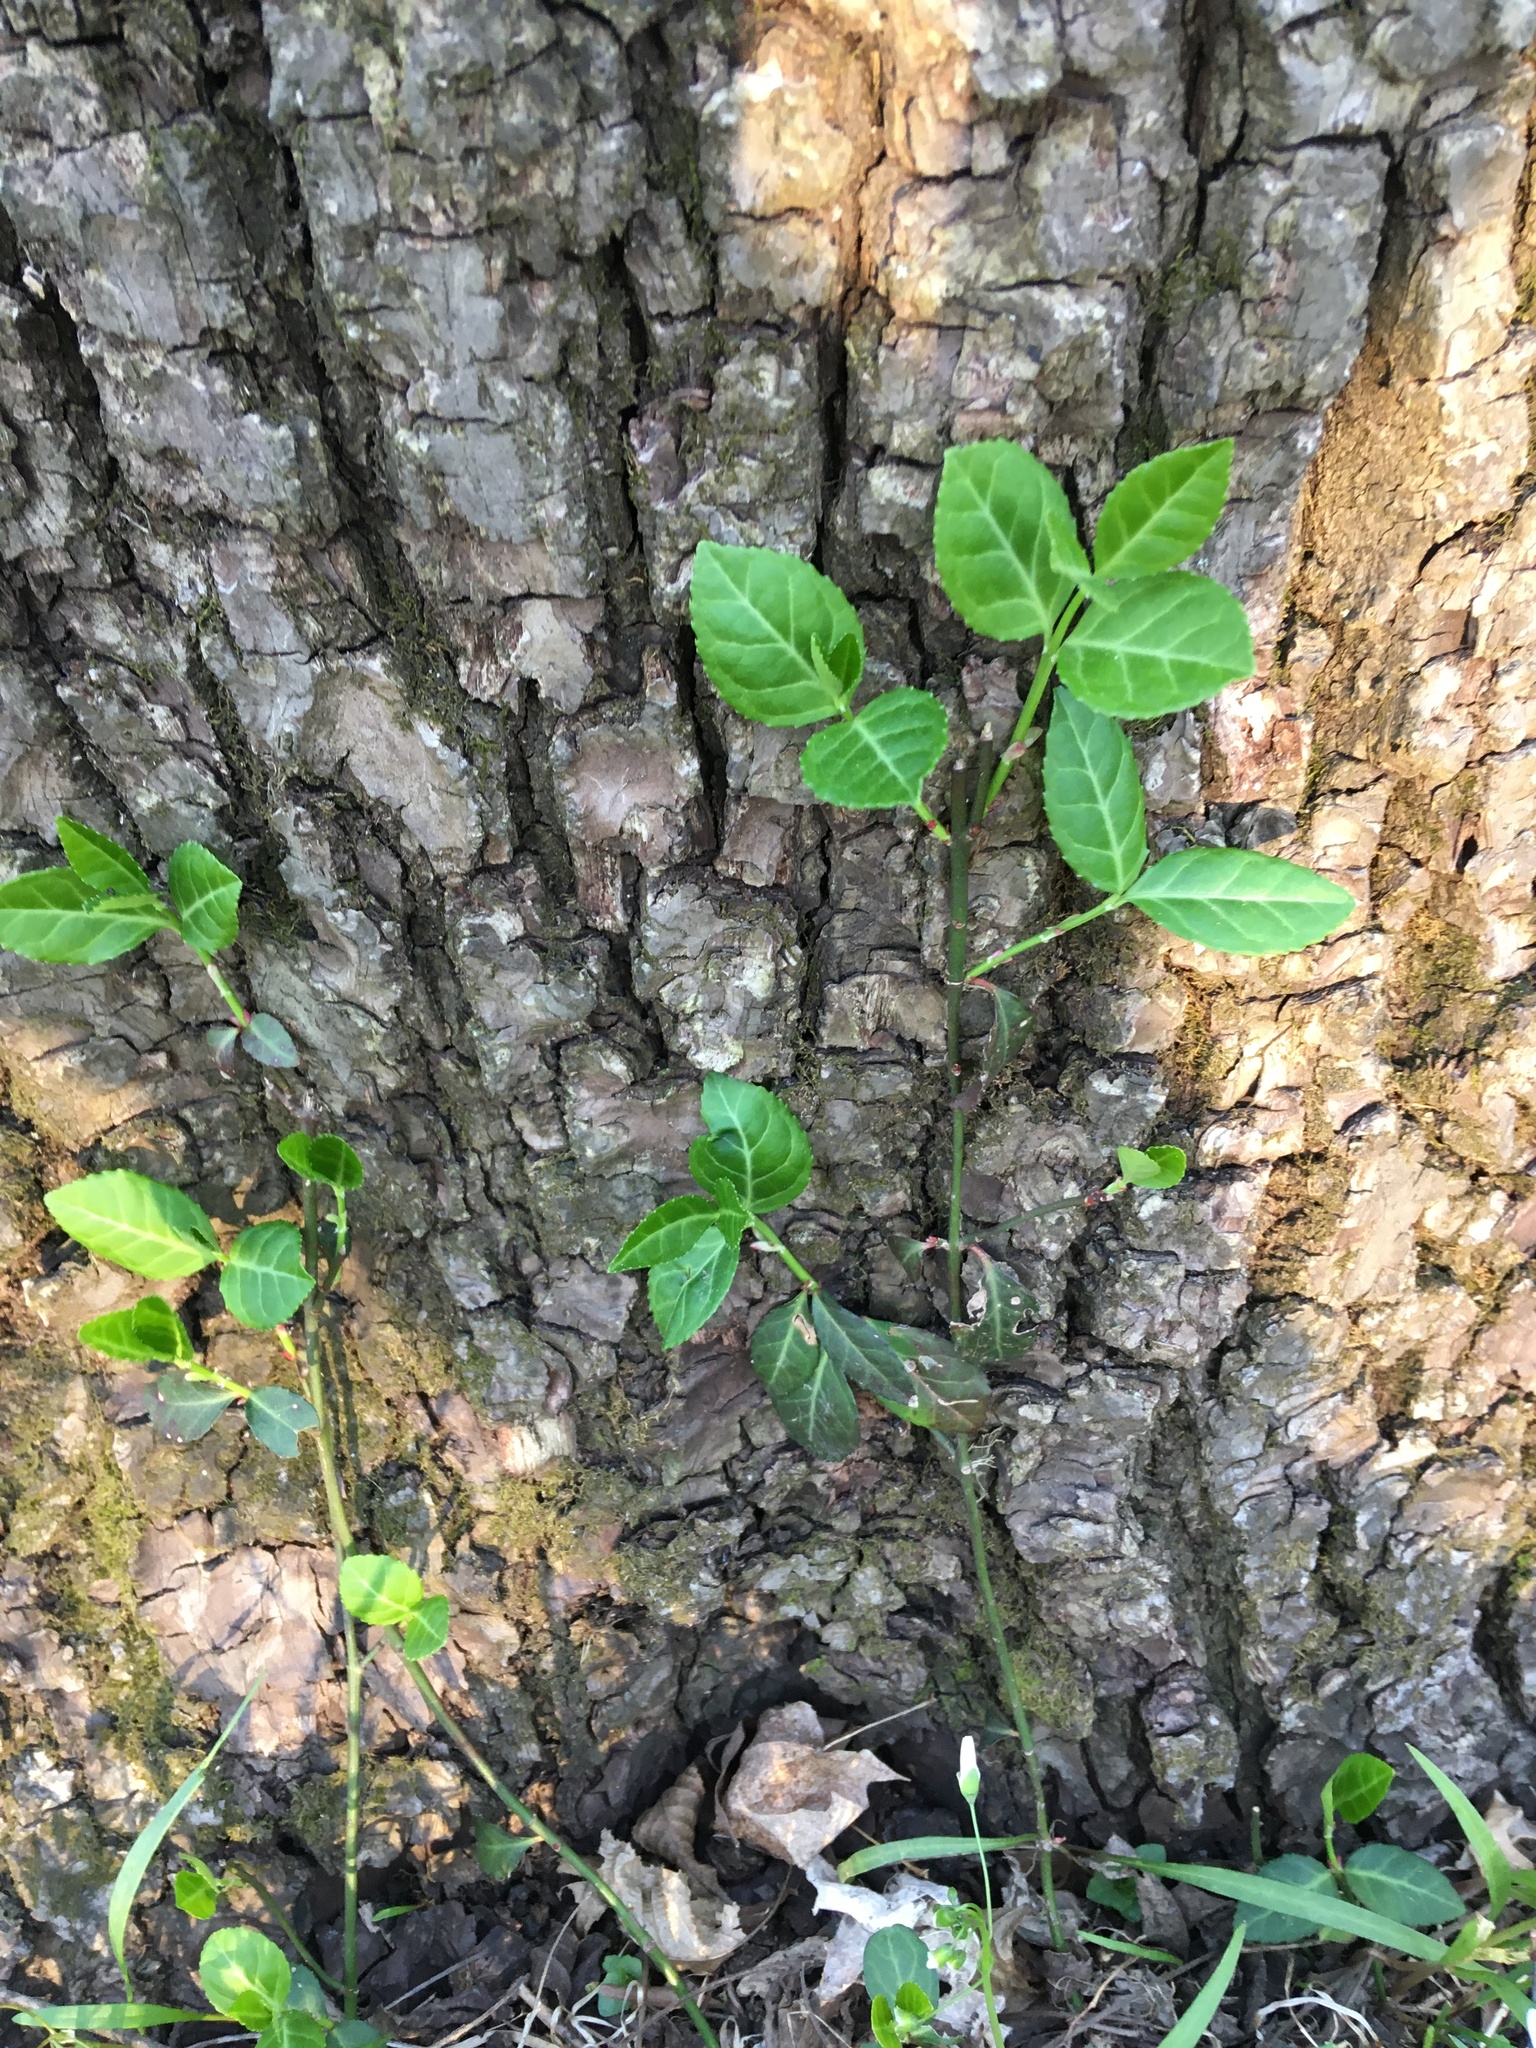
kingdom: Plantae
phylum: Tracheophyta
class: Magnoliopsida
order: Celastrales
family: Celastraceae
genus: Euonymus
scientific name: Euonymus fortunei
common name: Climbing euonymus
